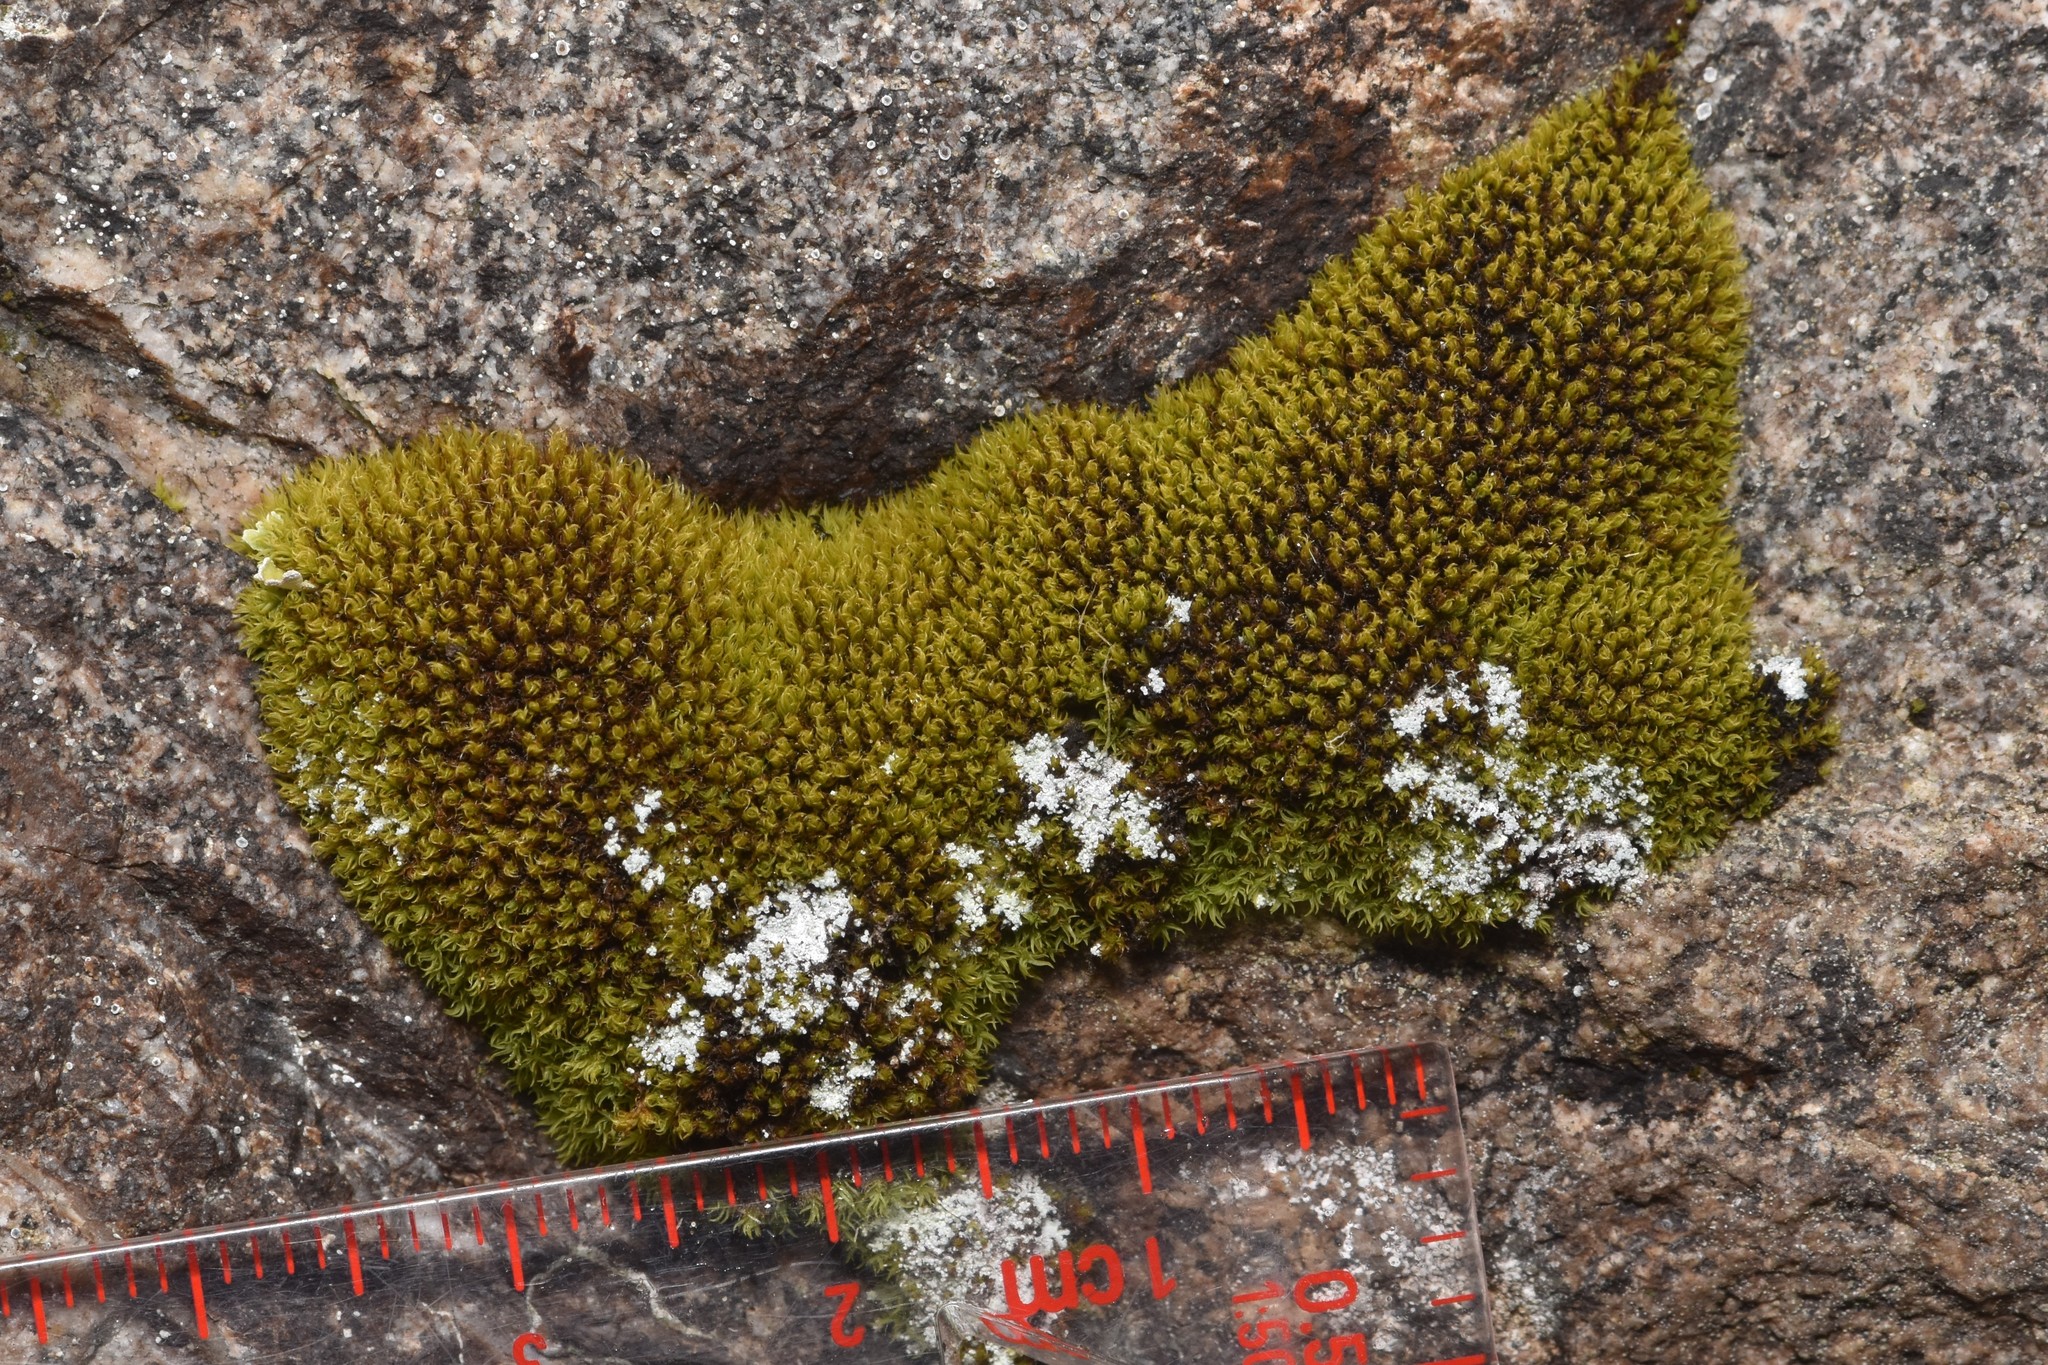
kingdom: Plantae
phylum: Bryophyta
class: Bryopsida
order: Grimmiales
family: Grimmiaceae
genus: Grimmia
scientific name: Grimmia torquata
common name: Twisted grimmia
